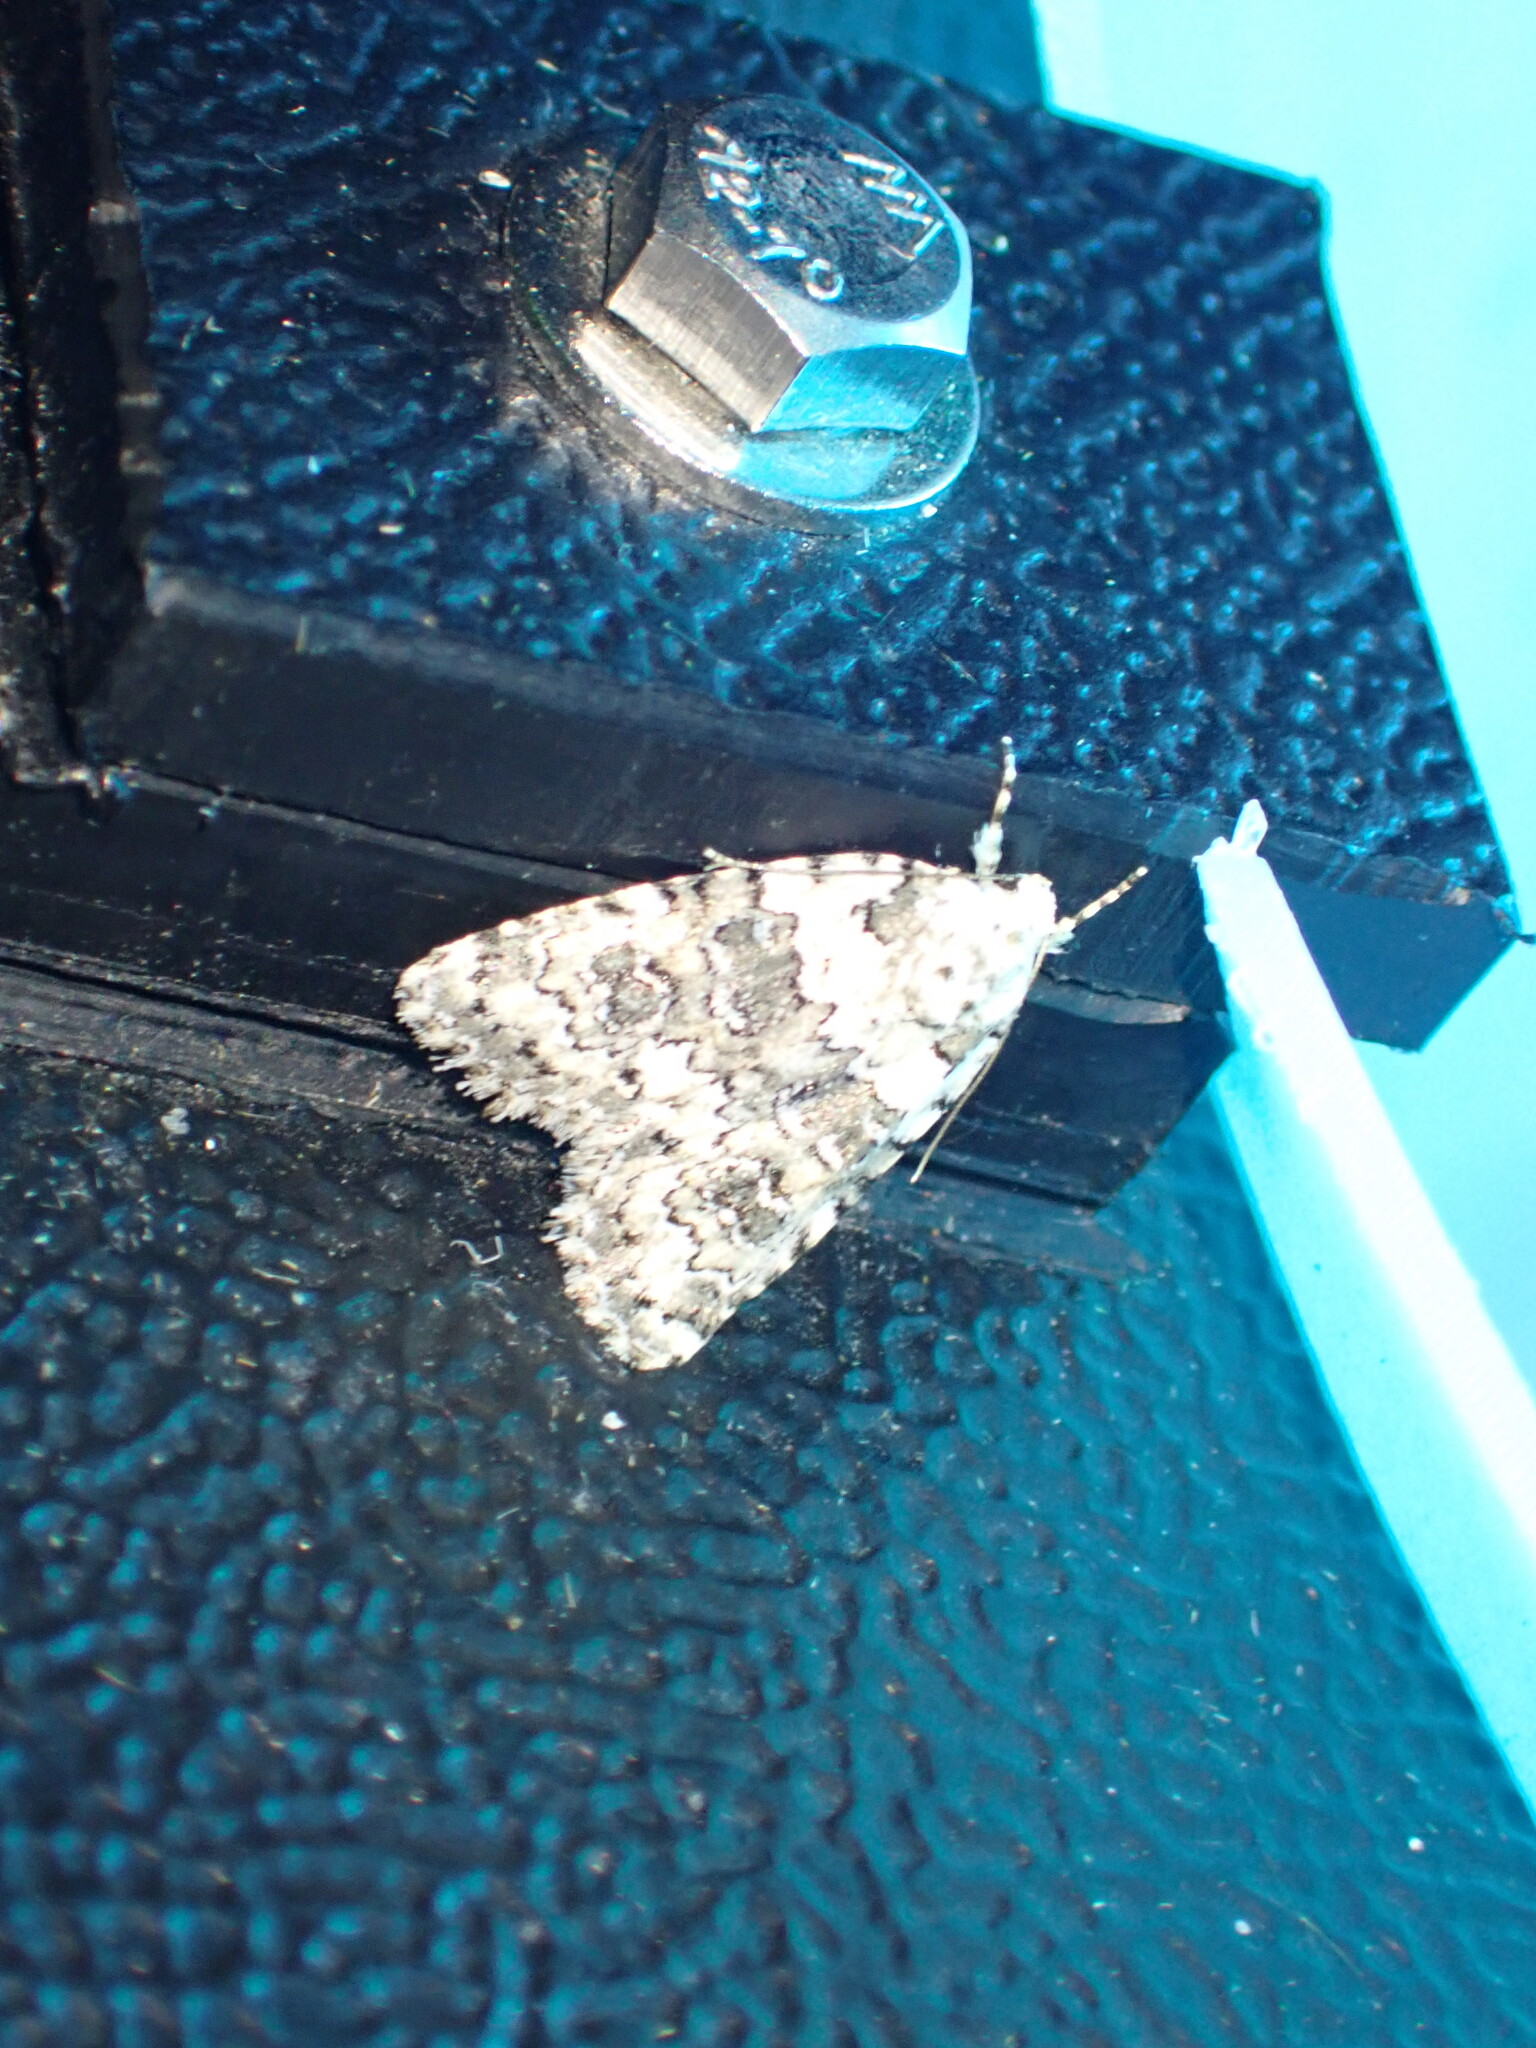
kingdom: Animalia
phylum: Arthropoda
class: Insecta
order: Lepidoptera
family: Noctuidae
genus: Bryophila
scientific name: Bryophila domestica
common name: Marbled beauty
